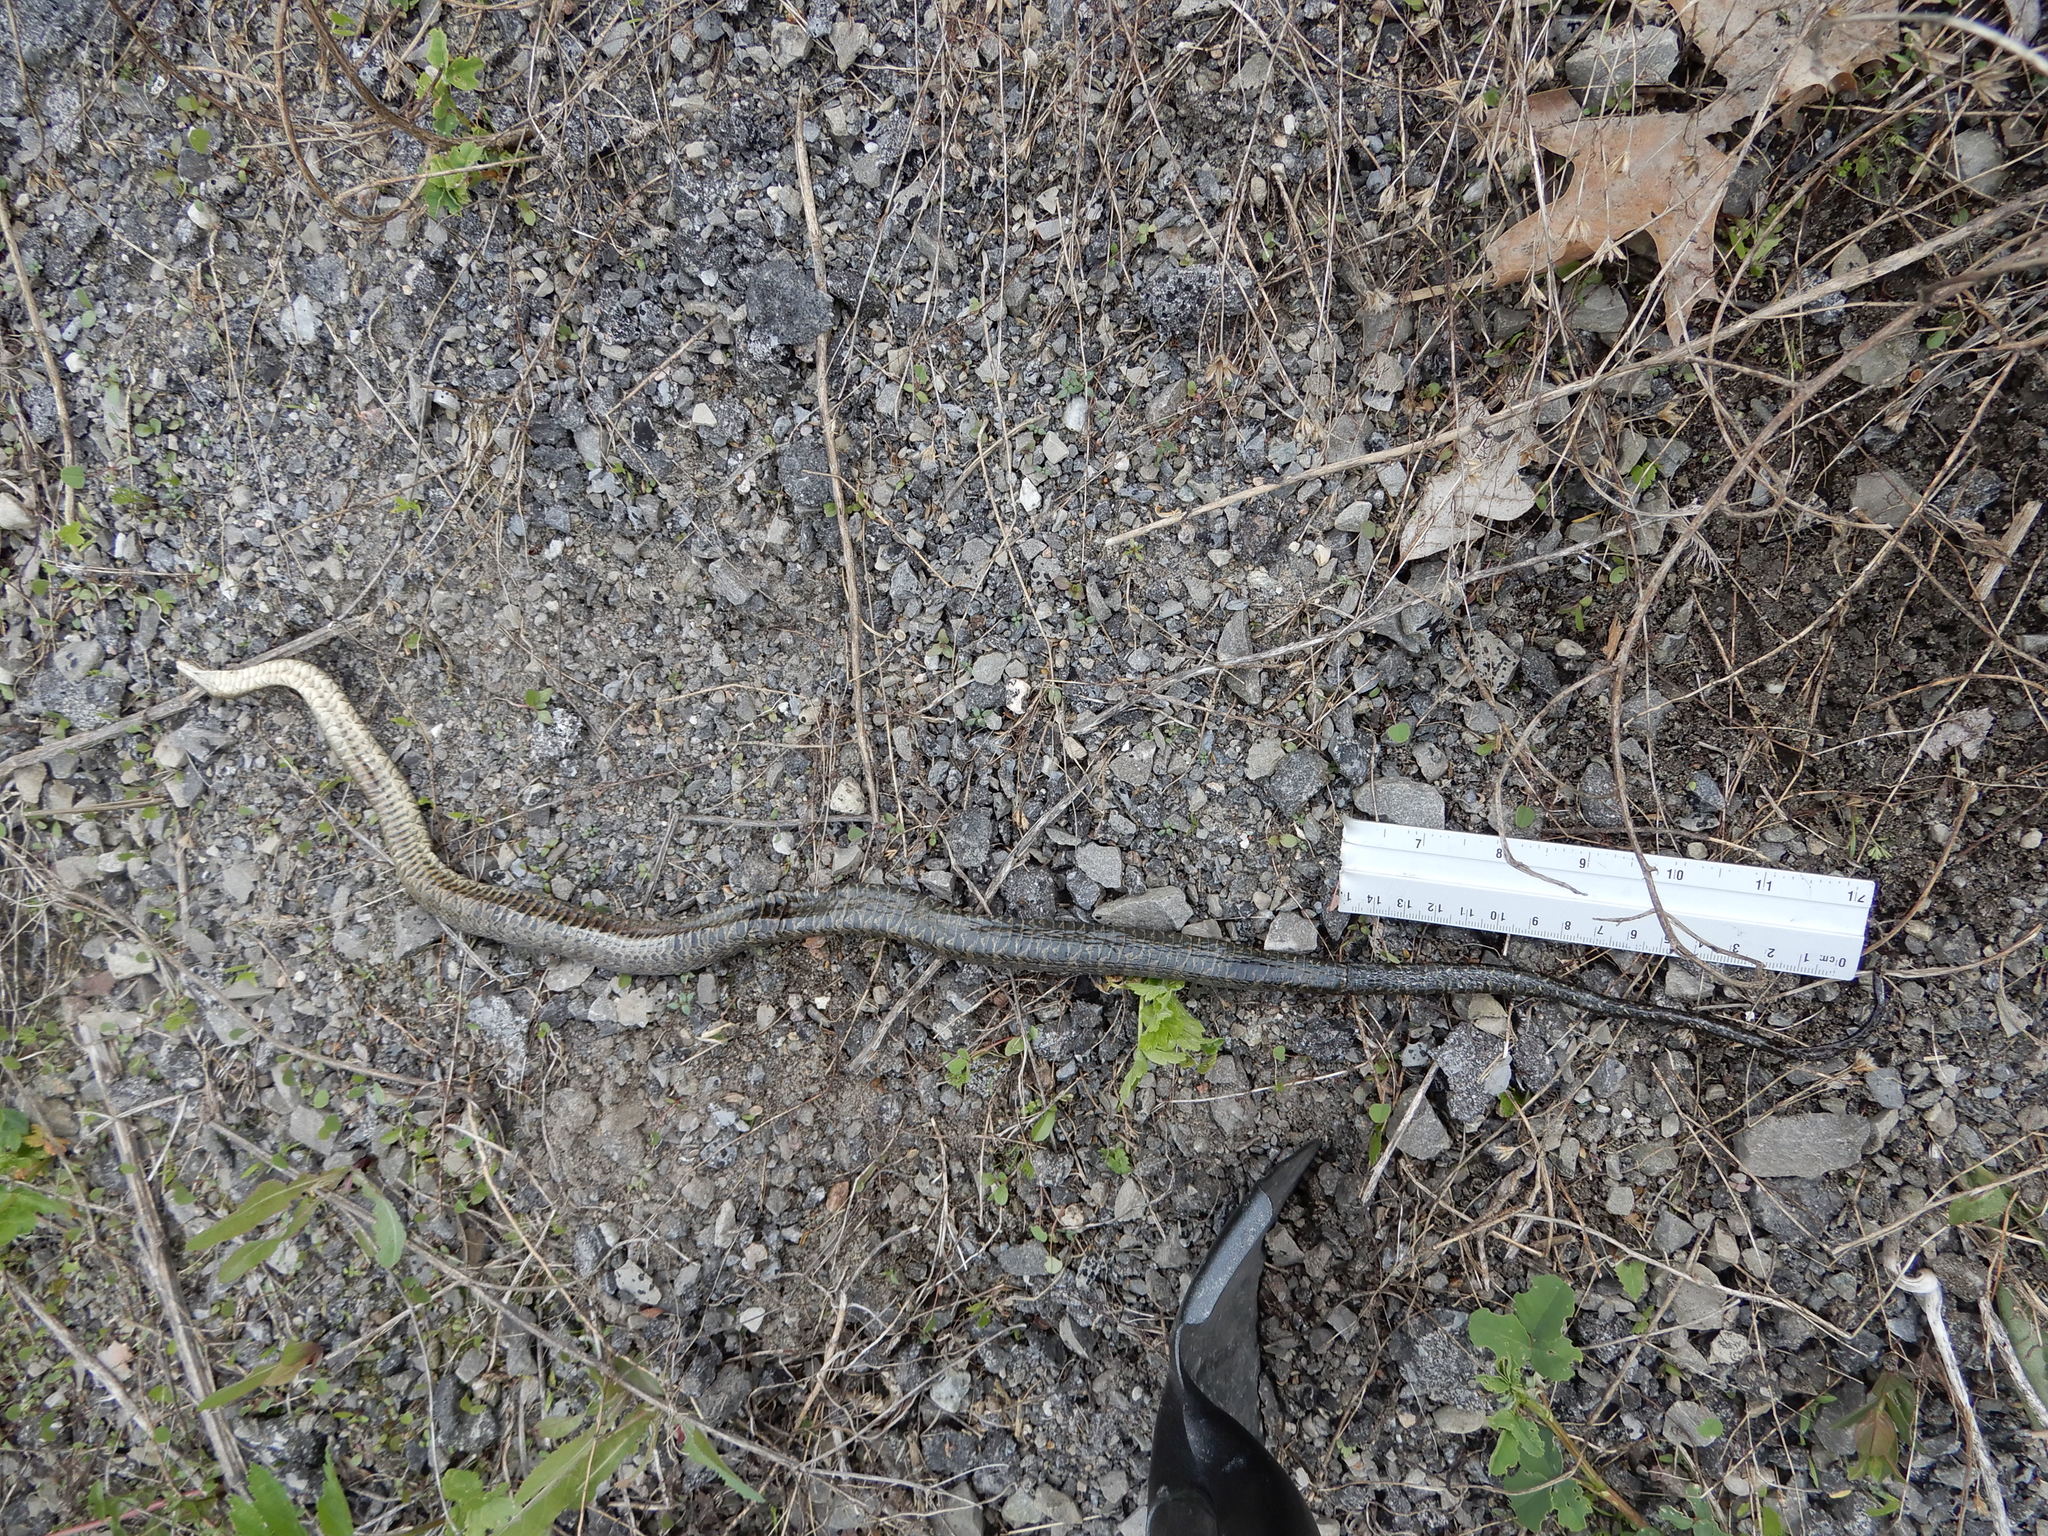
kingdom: Animalia
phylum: Chordata
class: Squamata
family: Colubridae
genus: Nerodia
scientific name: Nerodia sipedon
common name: Northern water snake
